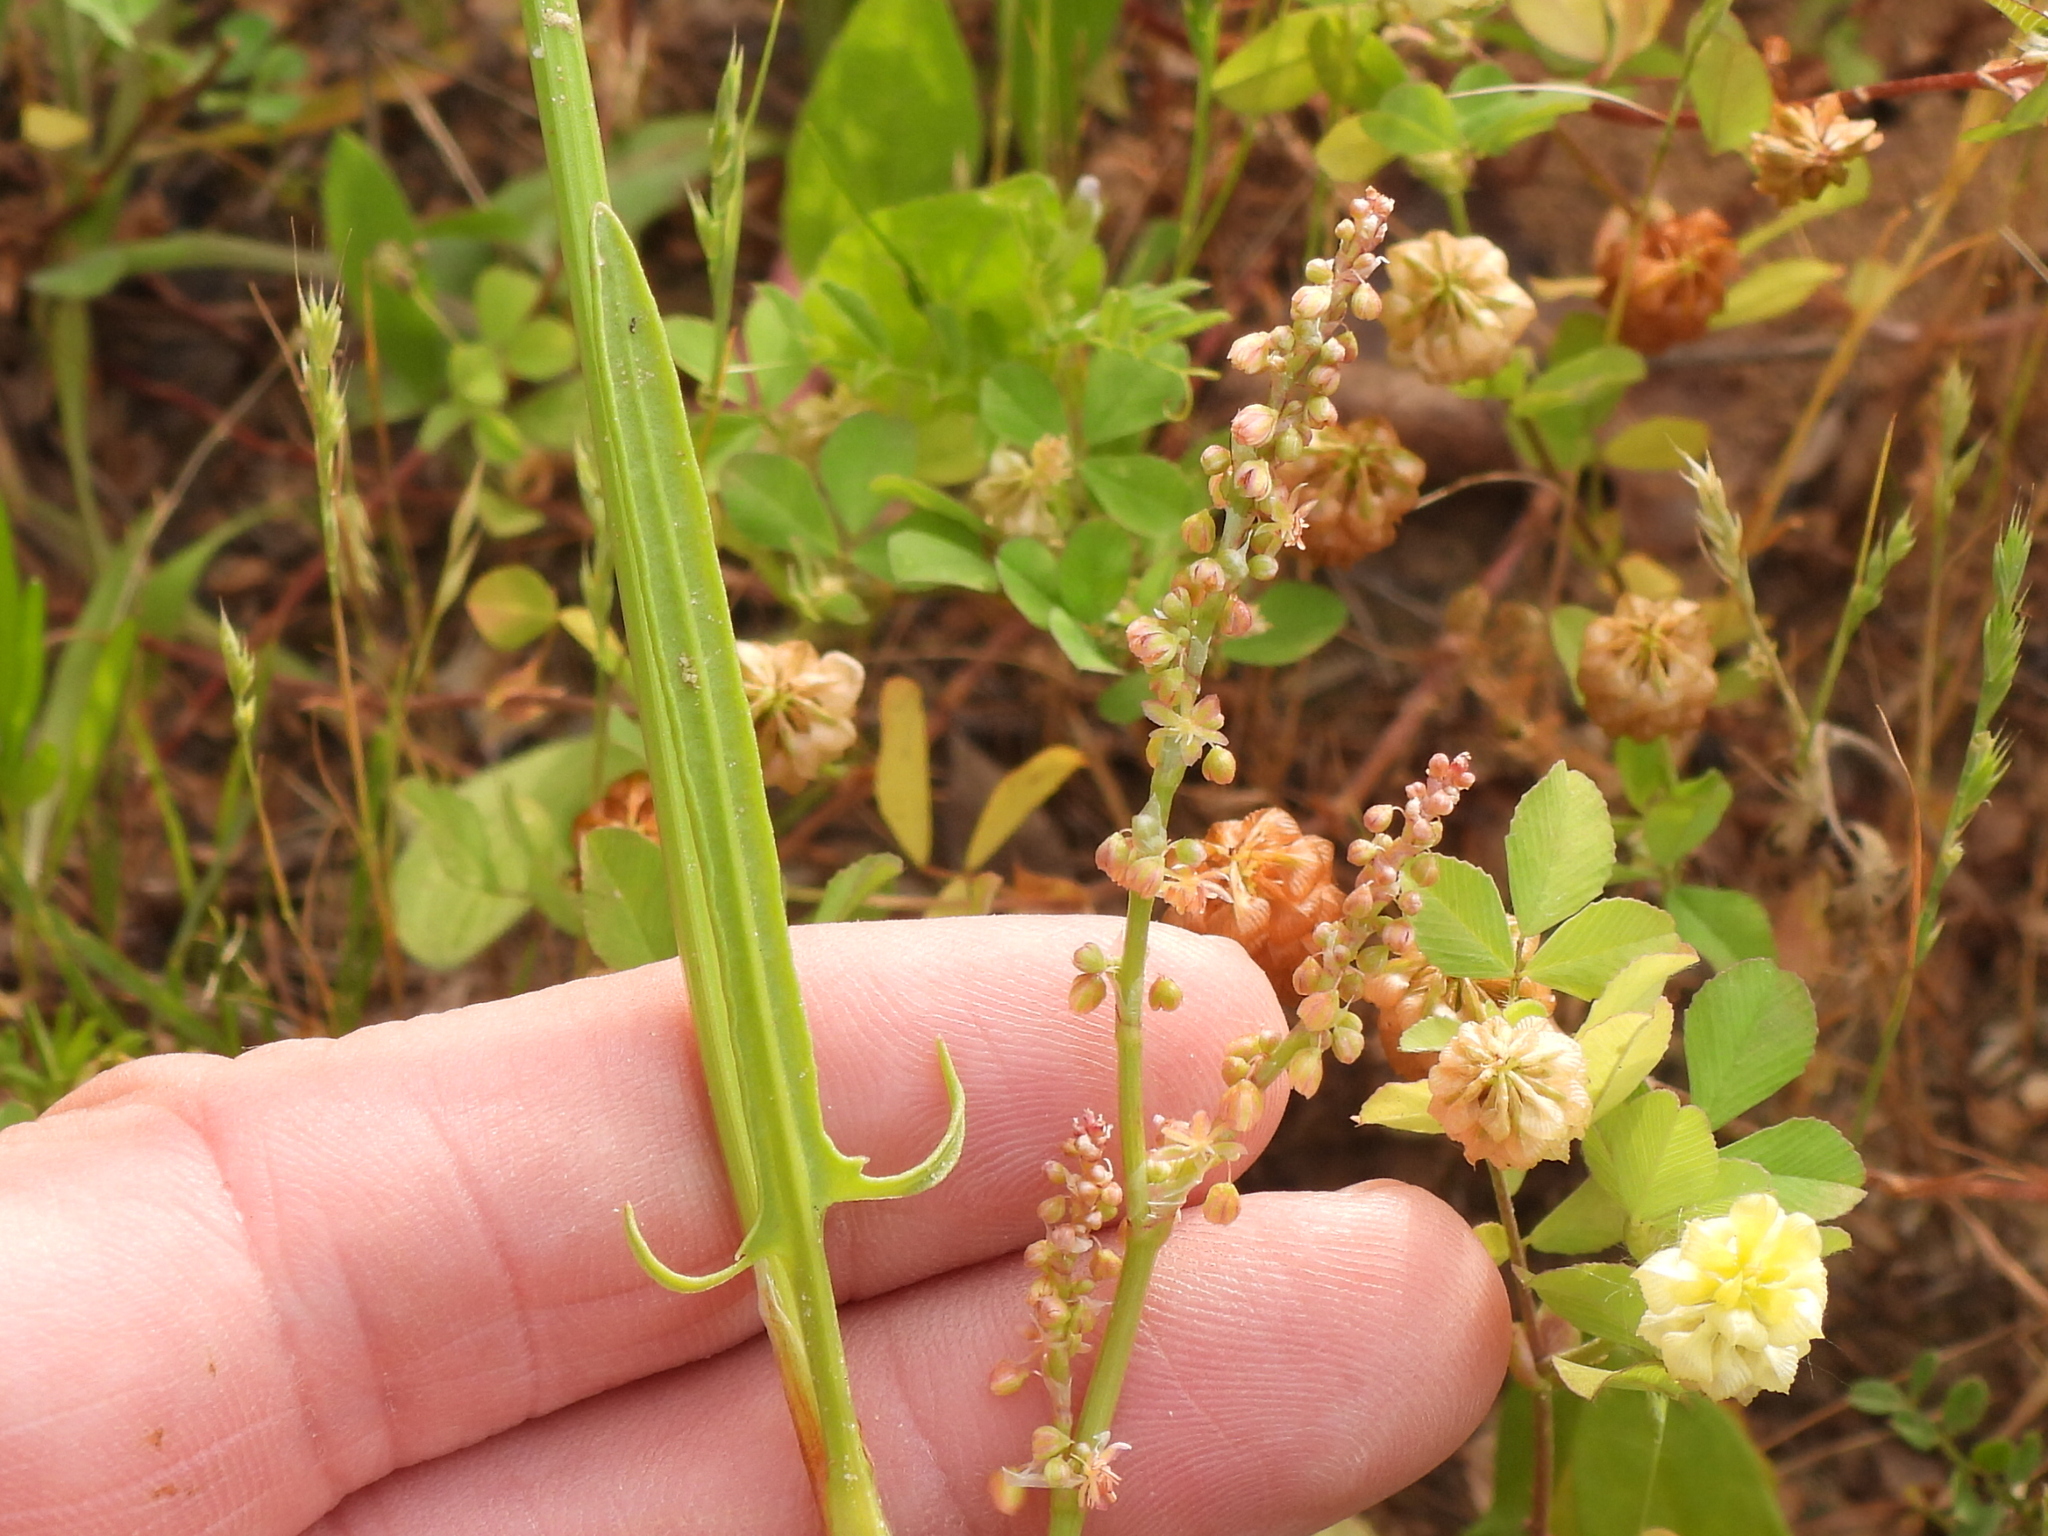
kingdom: Plantae
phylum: Tracheophyta
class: Magnoliopsida
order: Caryophyllales
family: Polygonaceae
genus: Rumex
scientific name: Rumex hastatulus
